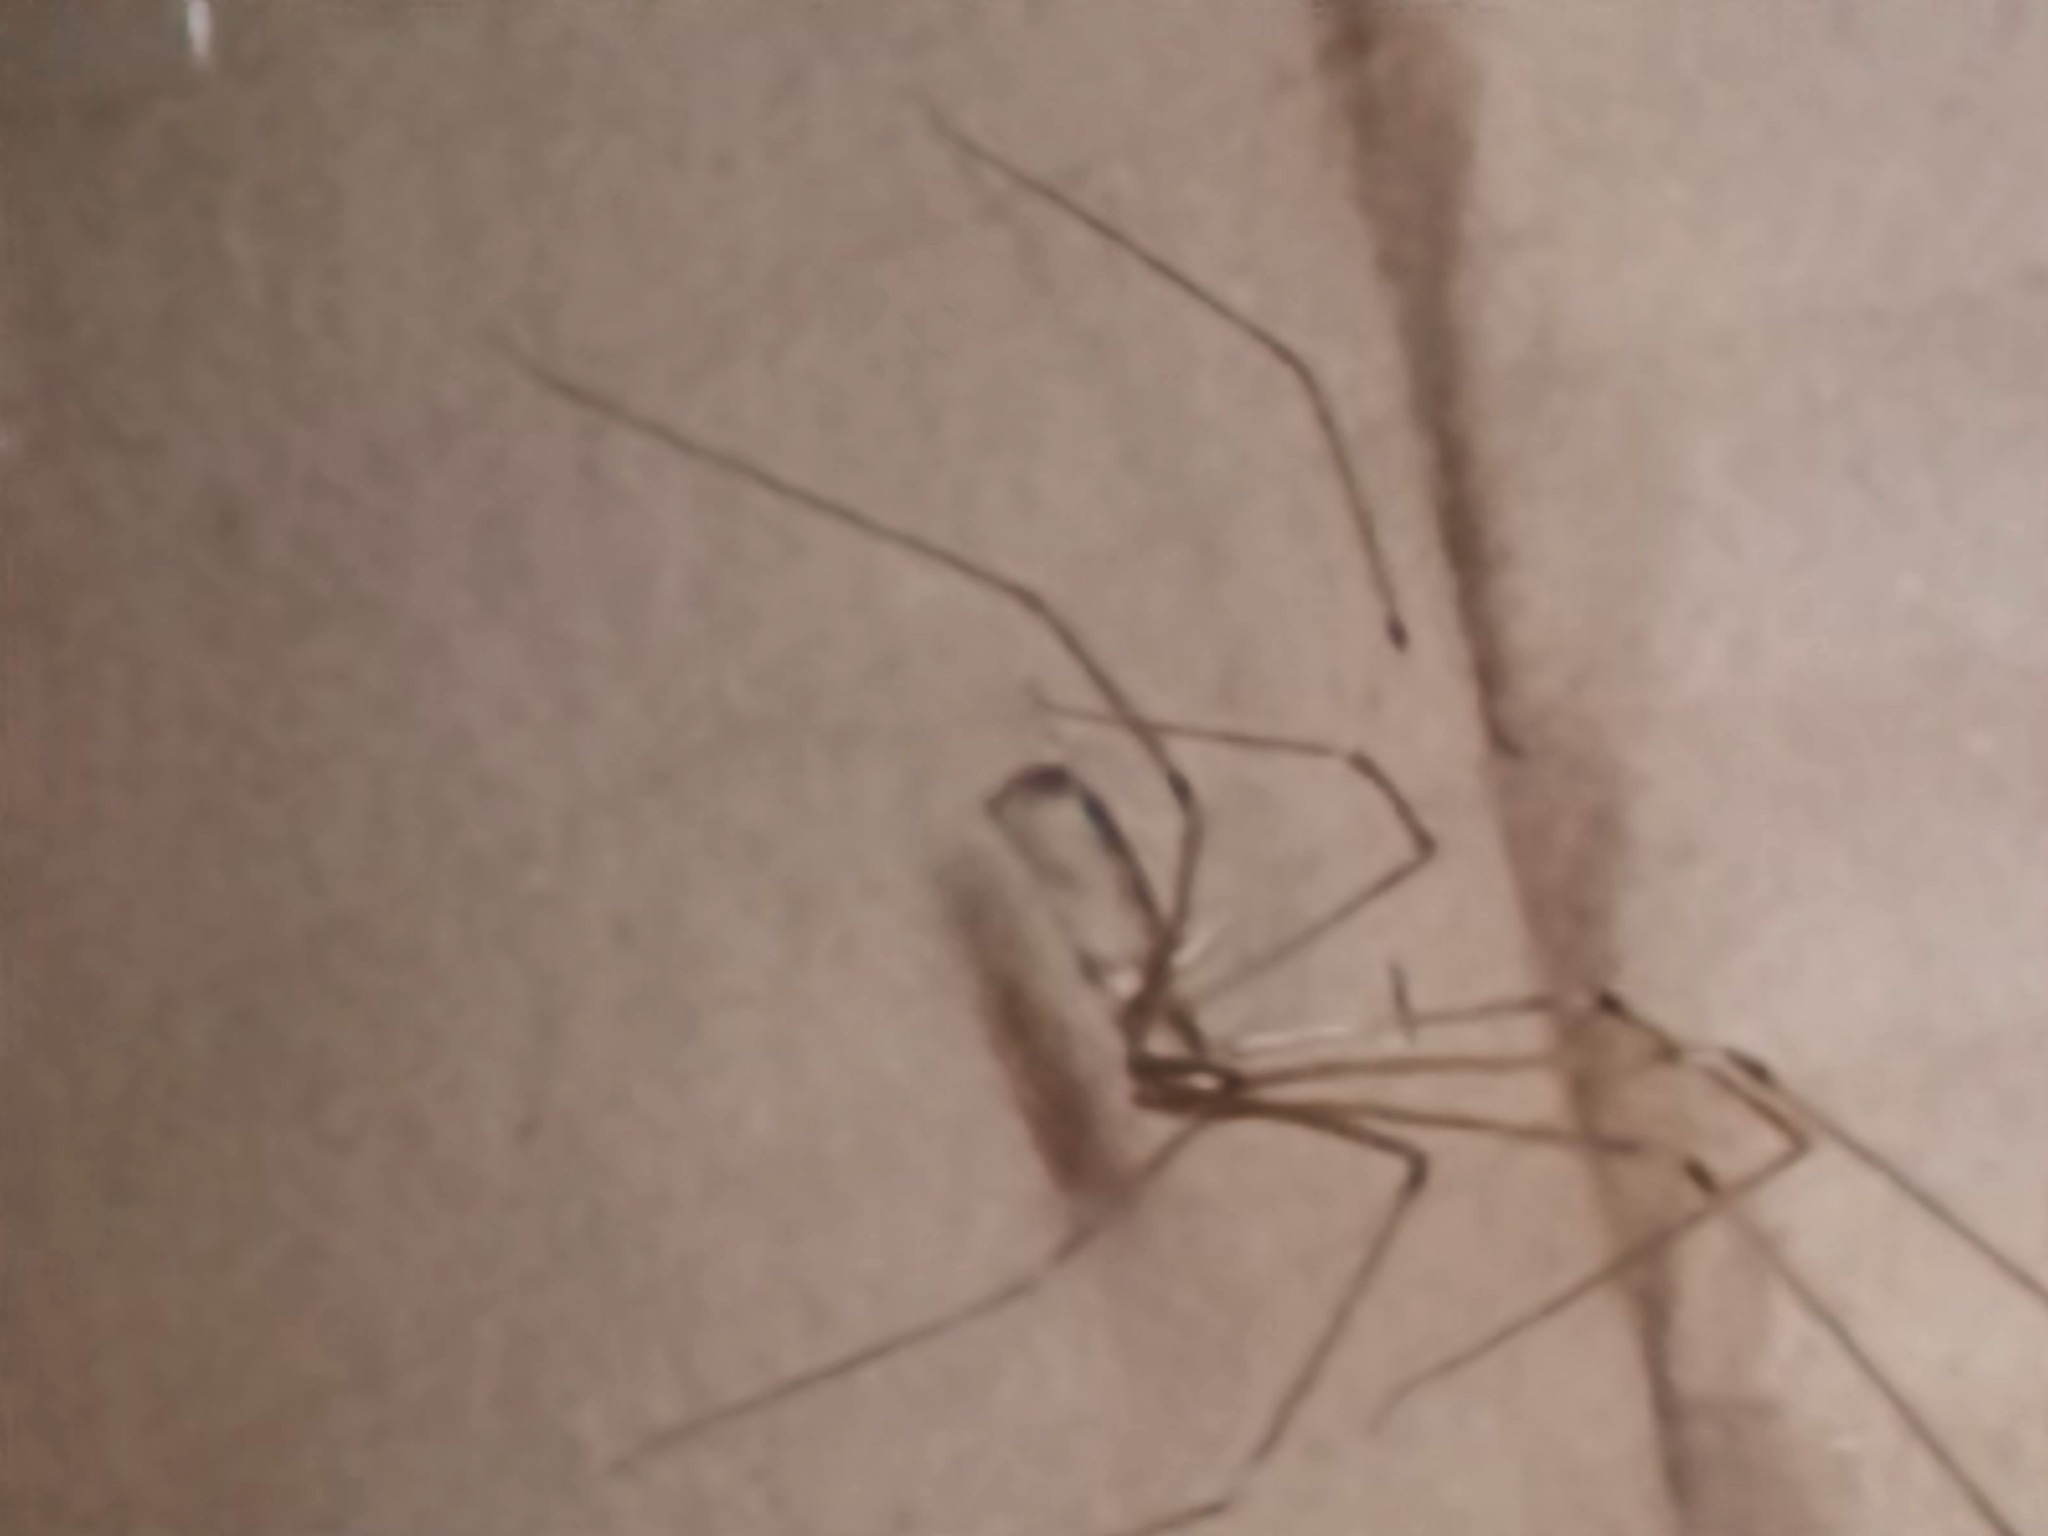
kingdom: Animalia
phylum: Arthropoda
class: Arachnida
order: Araneae
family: Pholcidae
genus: Pholcus
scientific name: Pholcus phalangioides
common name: Longbodied cellar spider
